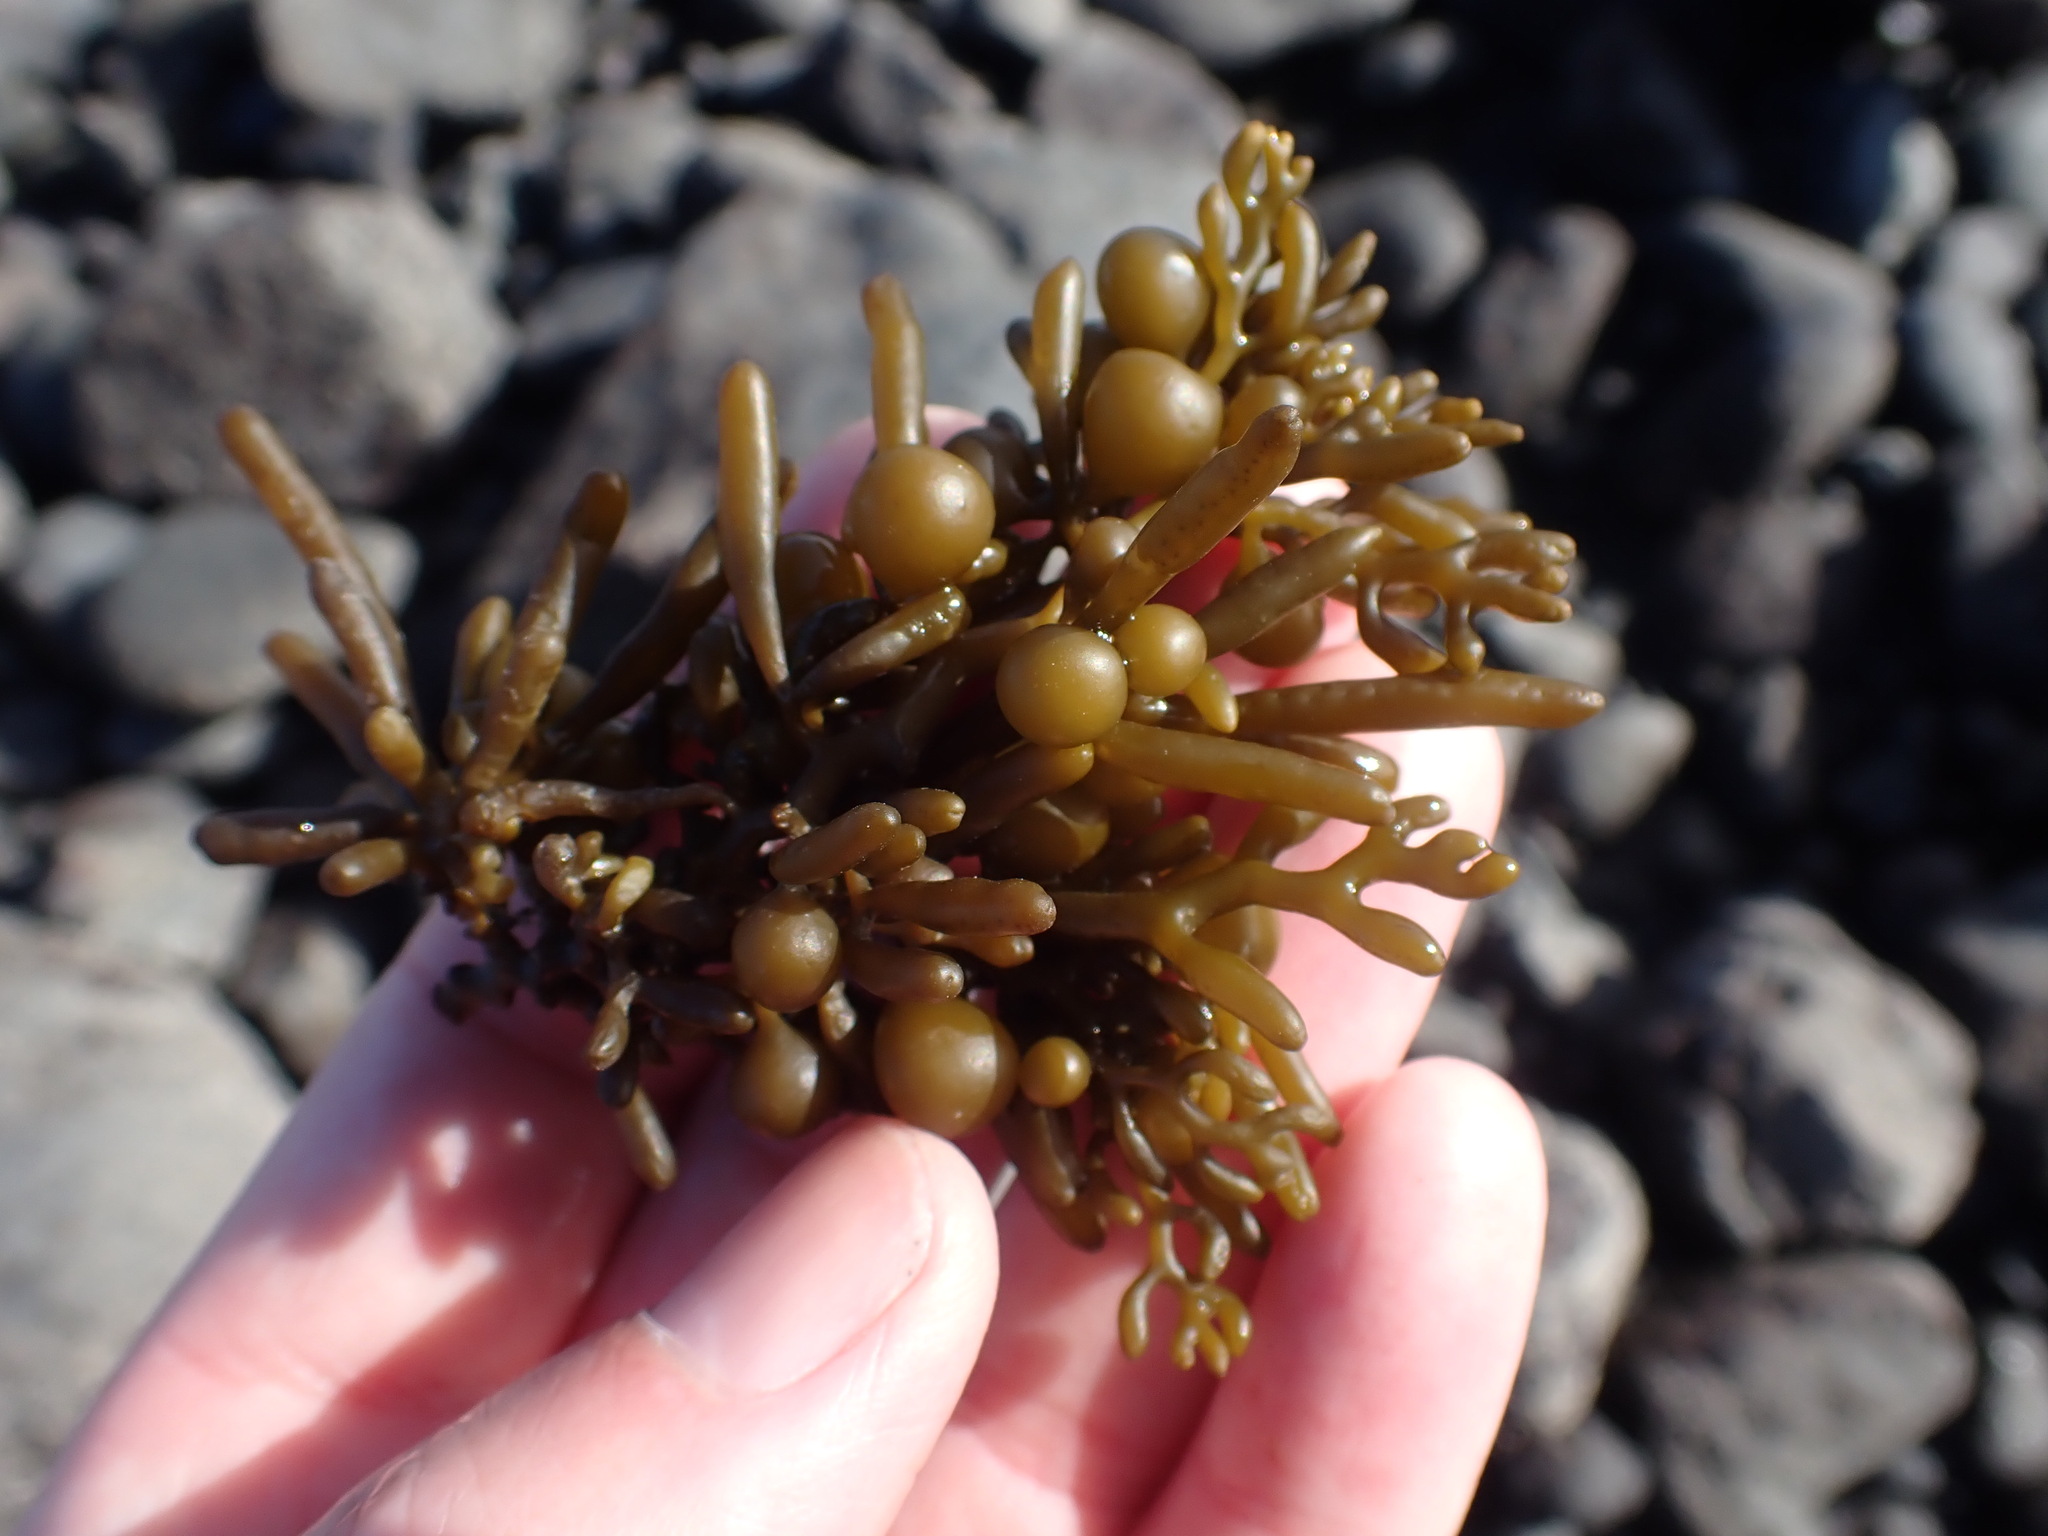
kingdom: Chromista
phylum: Ochrophyta
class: Phaeophyceae
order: Fucales
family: Sargassaceae
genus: Cystophora
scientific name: Cystophora torulosa
